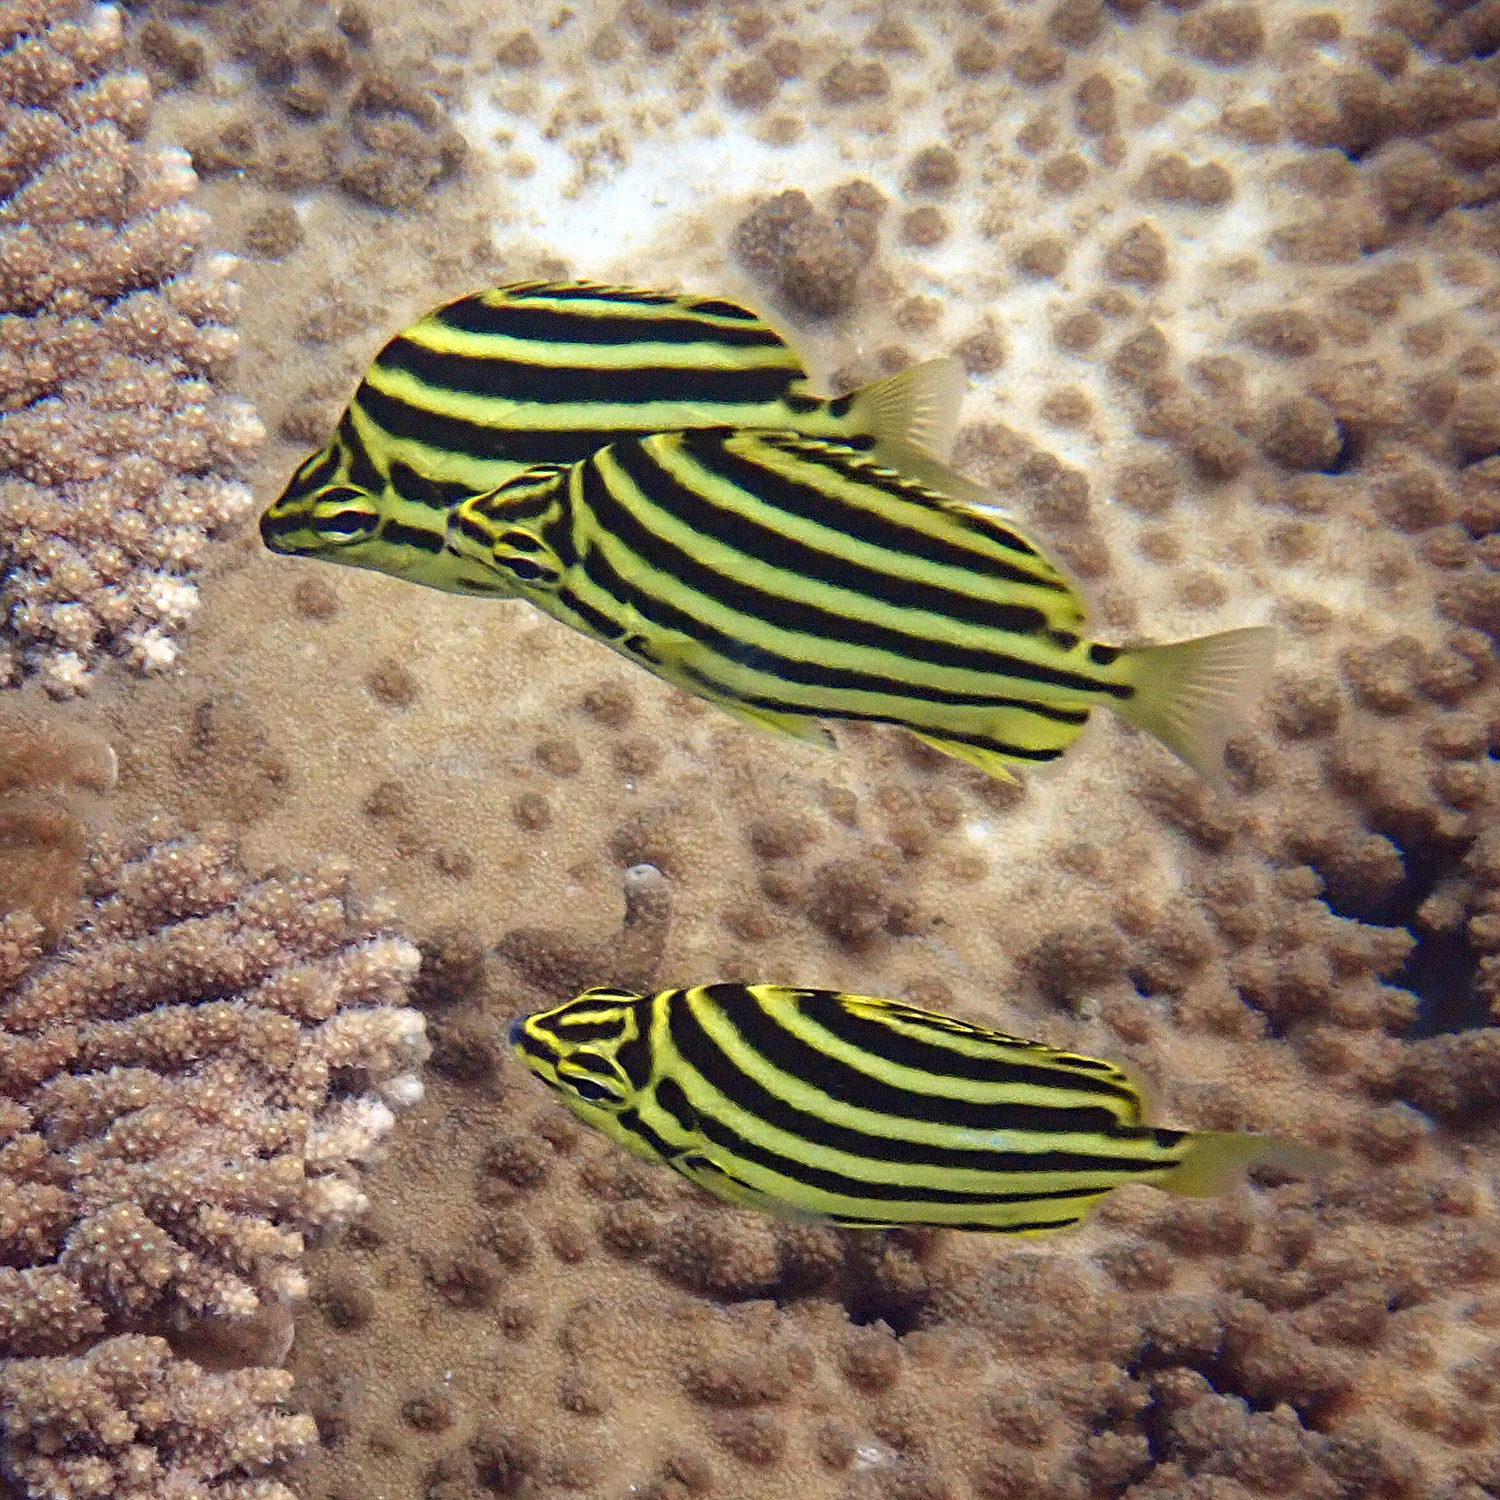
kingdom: Animalia
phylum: Chordata
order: Perciformes
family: Kyphosidae
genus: Microcanthus
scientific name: Microcanthus joyceae
